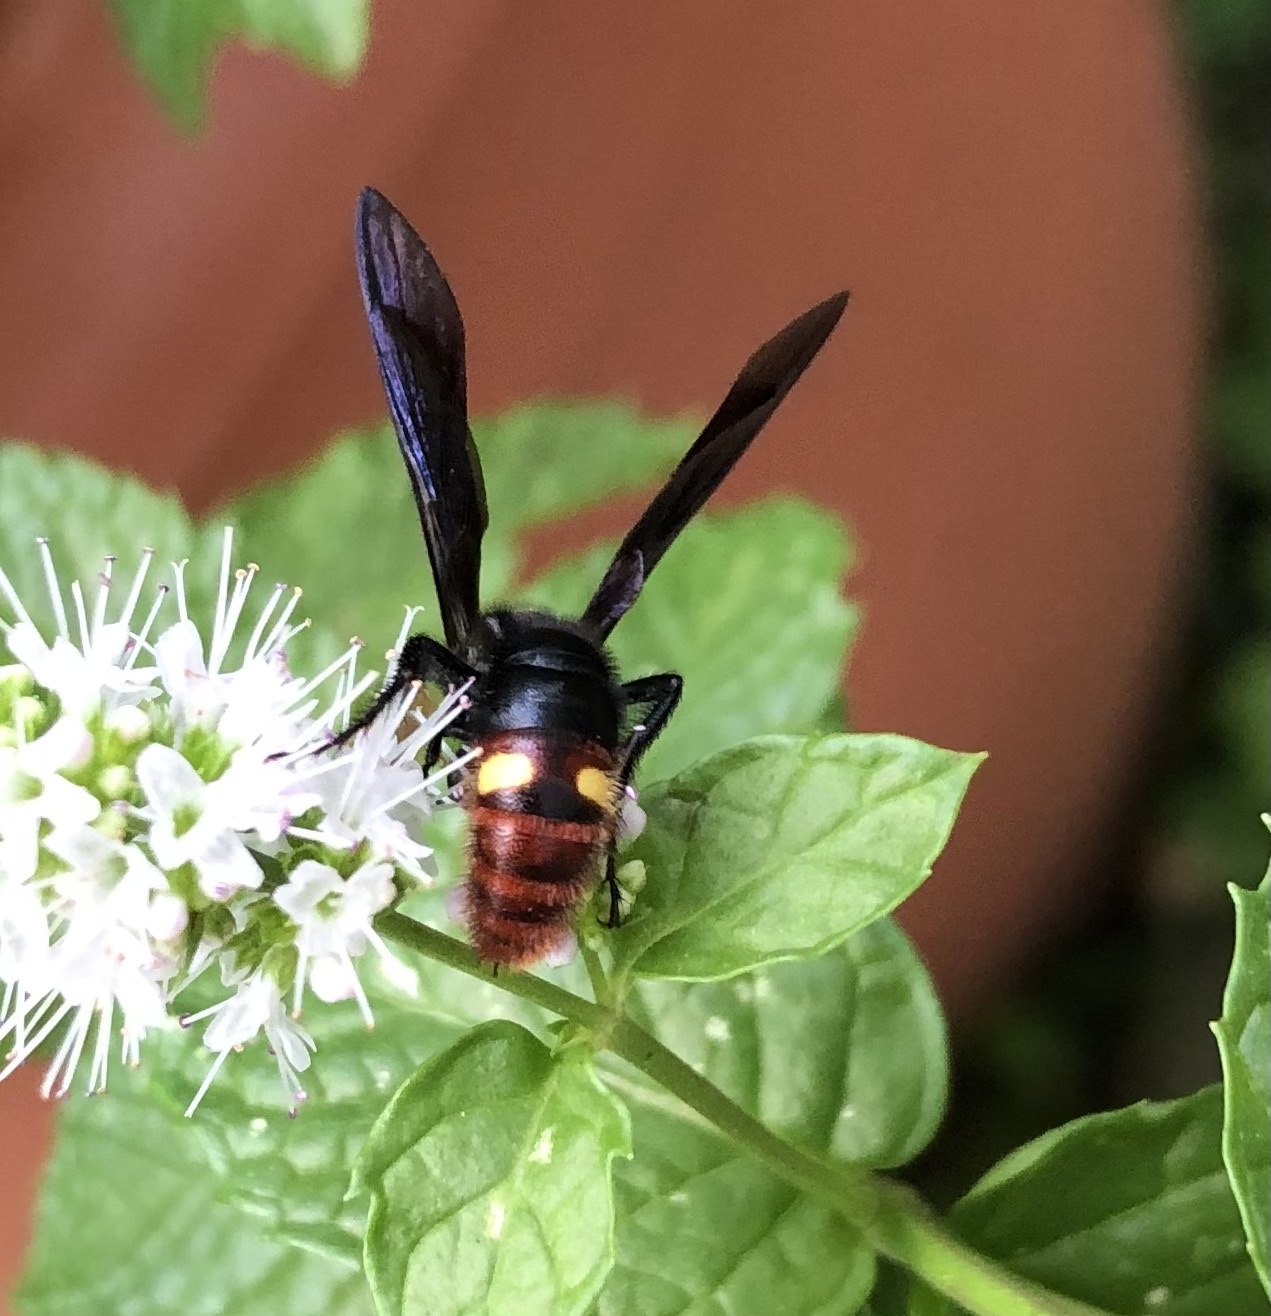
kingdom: Animalia
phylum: Arthropoda
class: Insecta
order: Hymenoptera
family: Scoliidae
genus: Scolia
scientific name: Scolia dubia
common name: Blue-winged scoliid wasp
